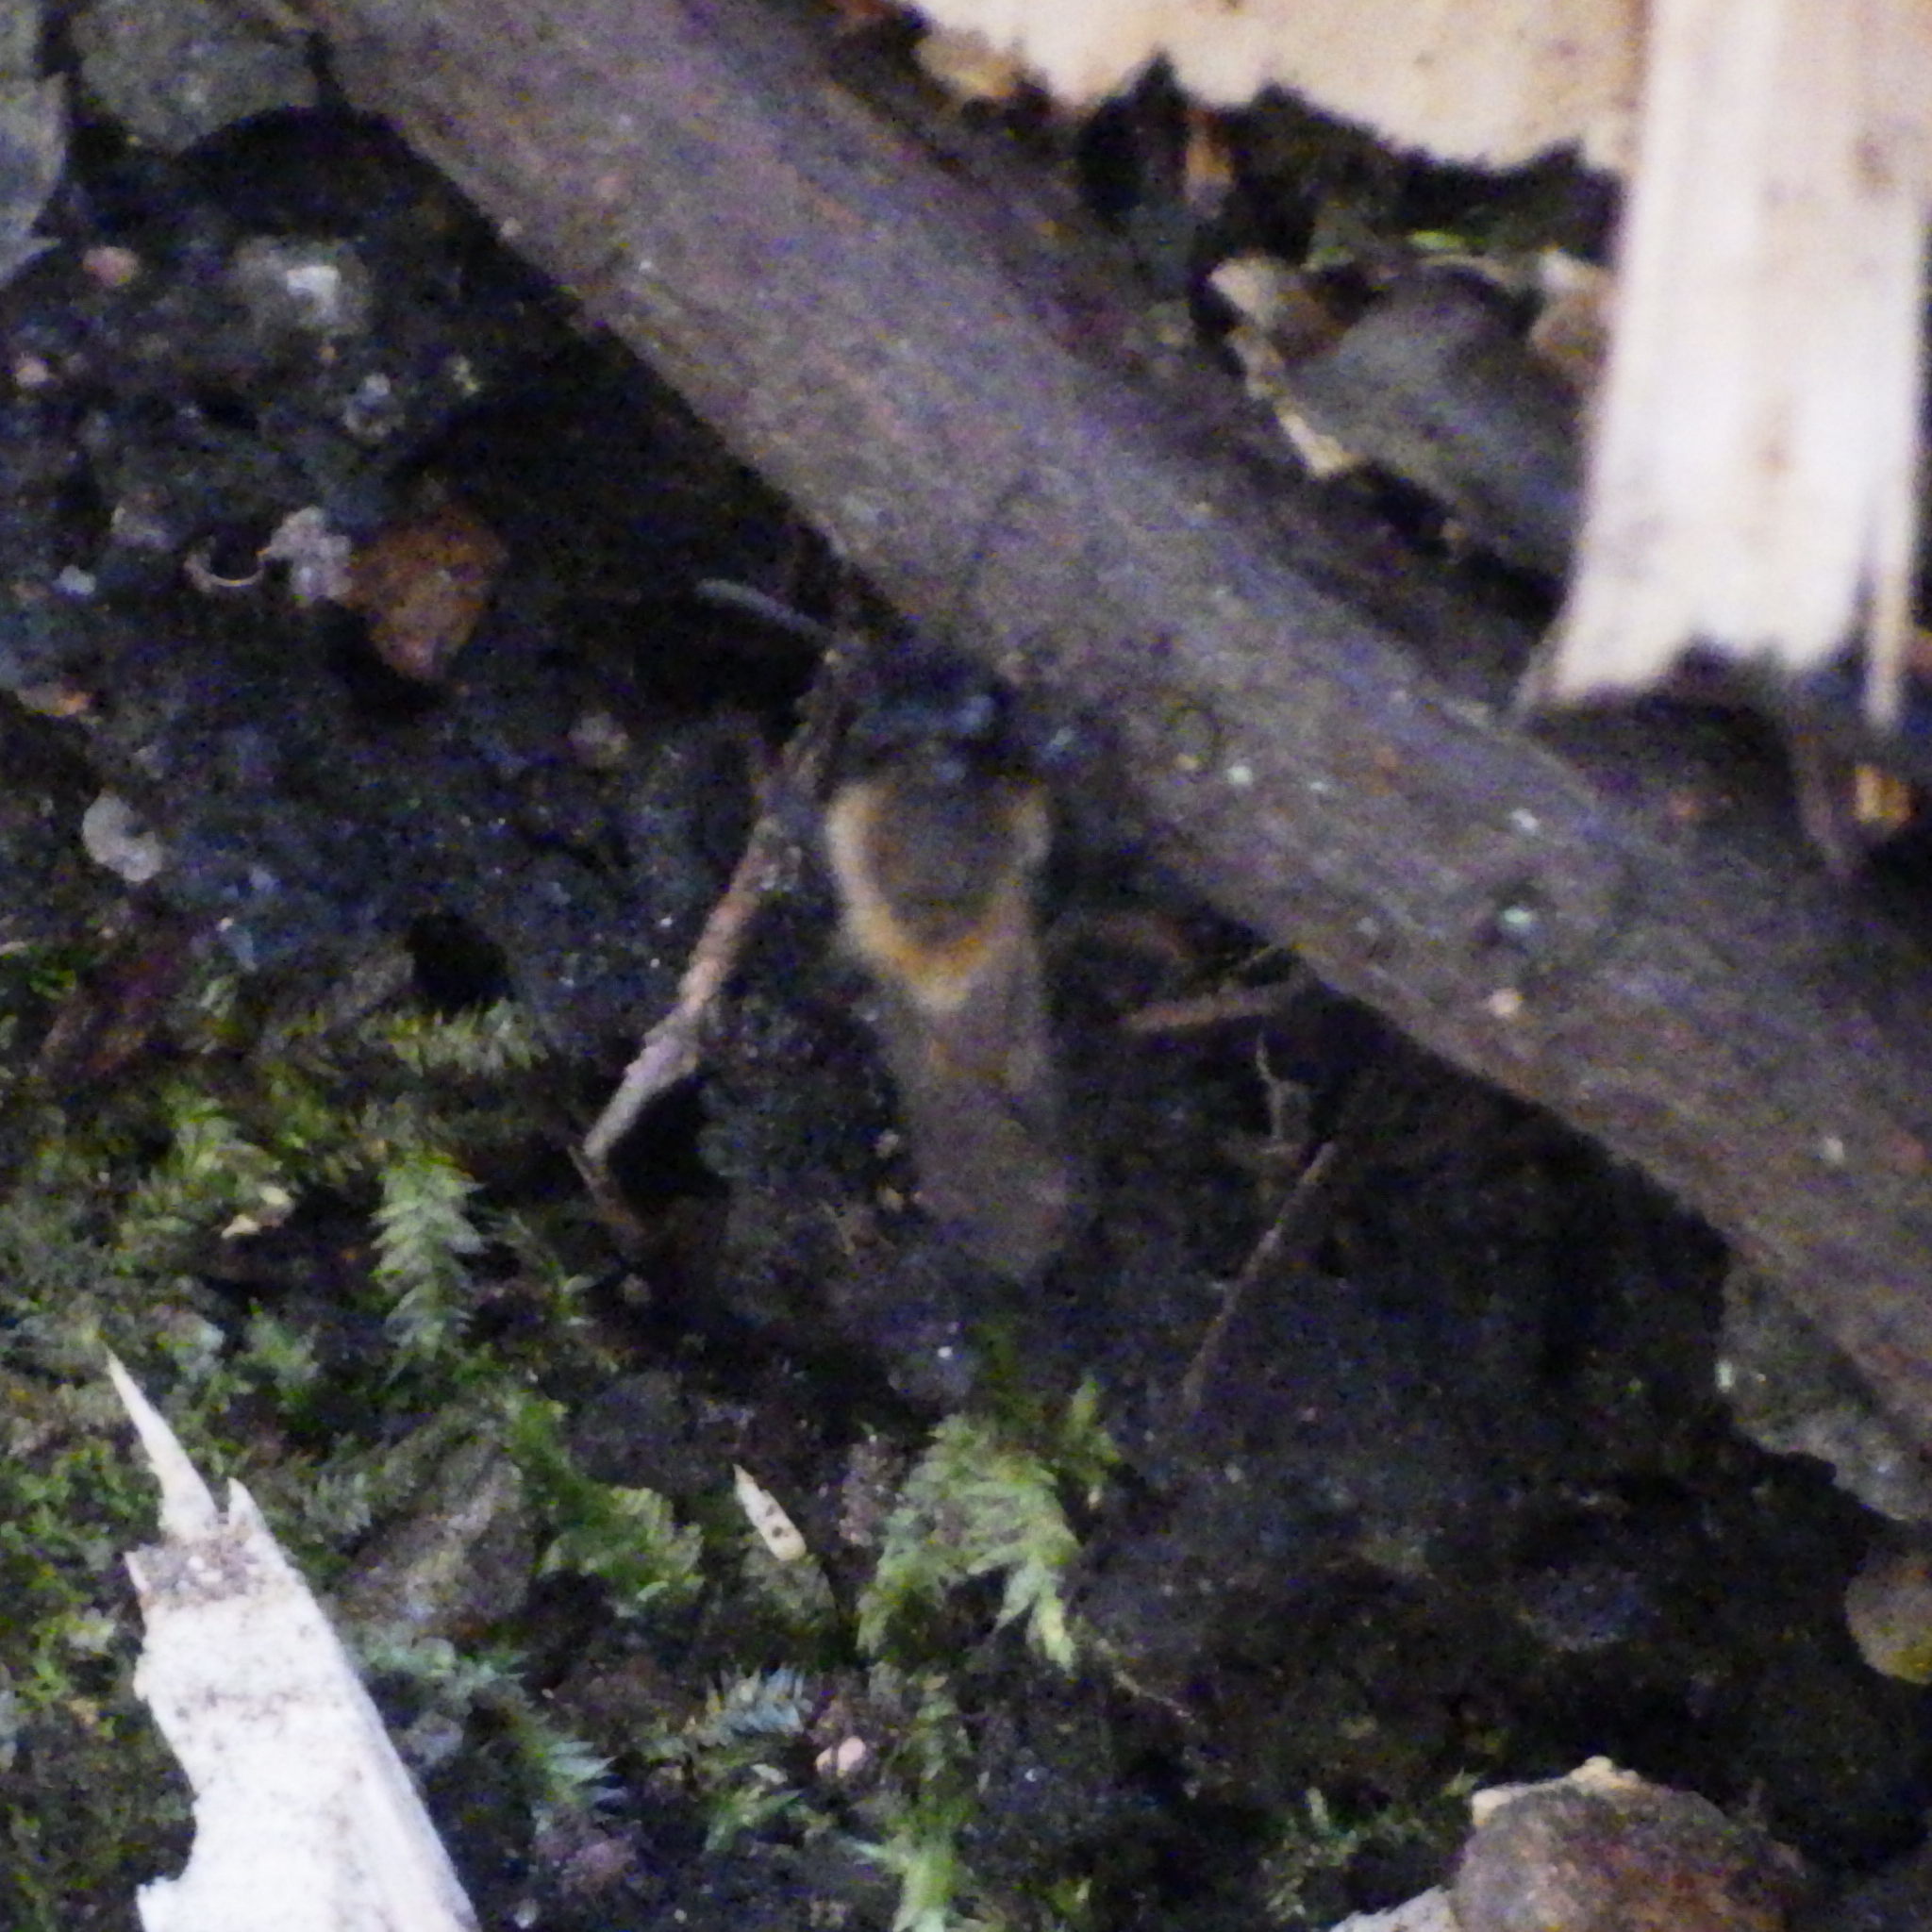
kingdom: Animalia
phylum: Arthropoda
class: Insecta
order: Hymenoptera
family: Andrenidae
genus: Andrena
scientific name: Andrena clarkella
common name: Clarke's mining bee
